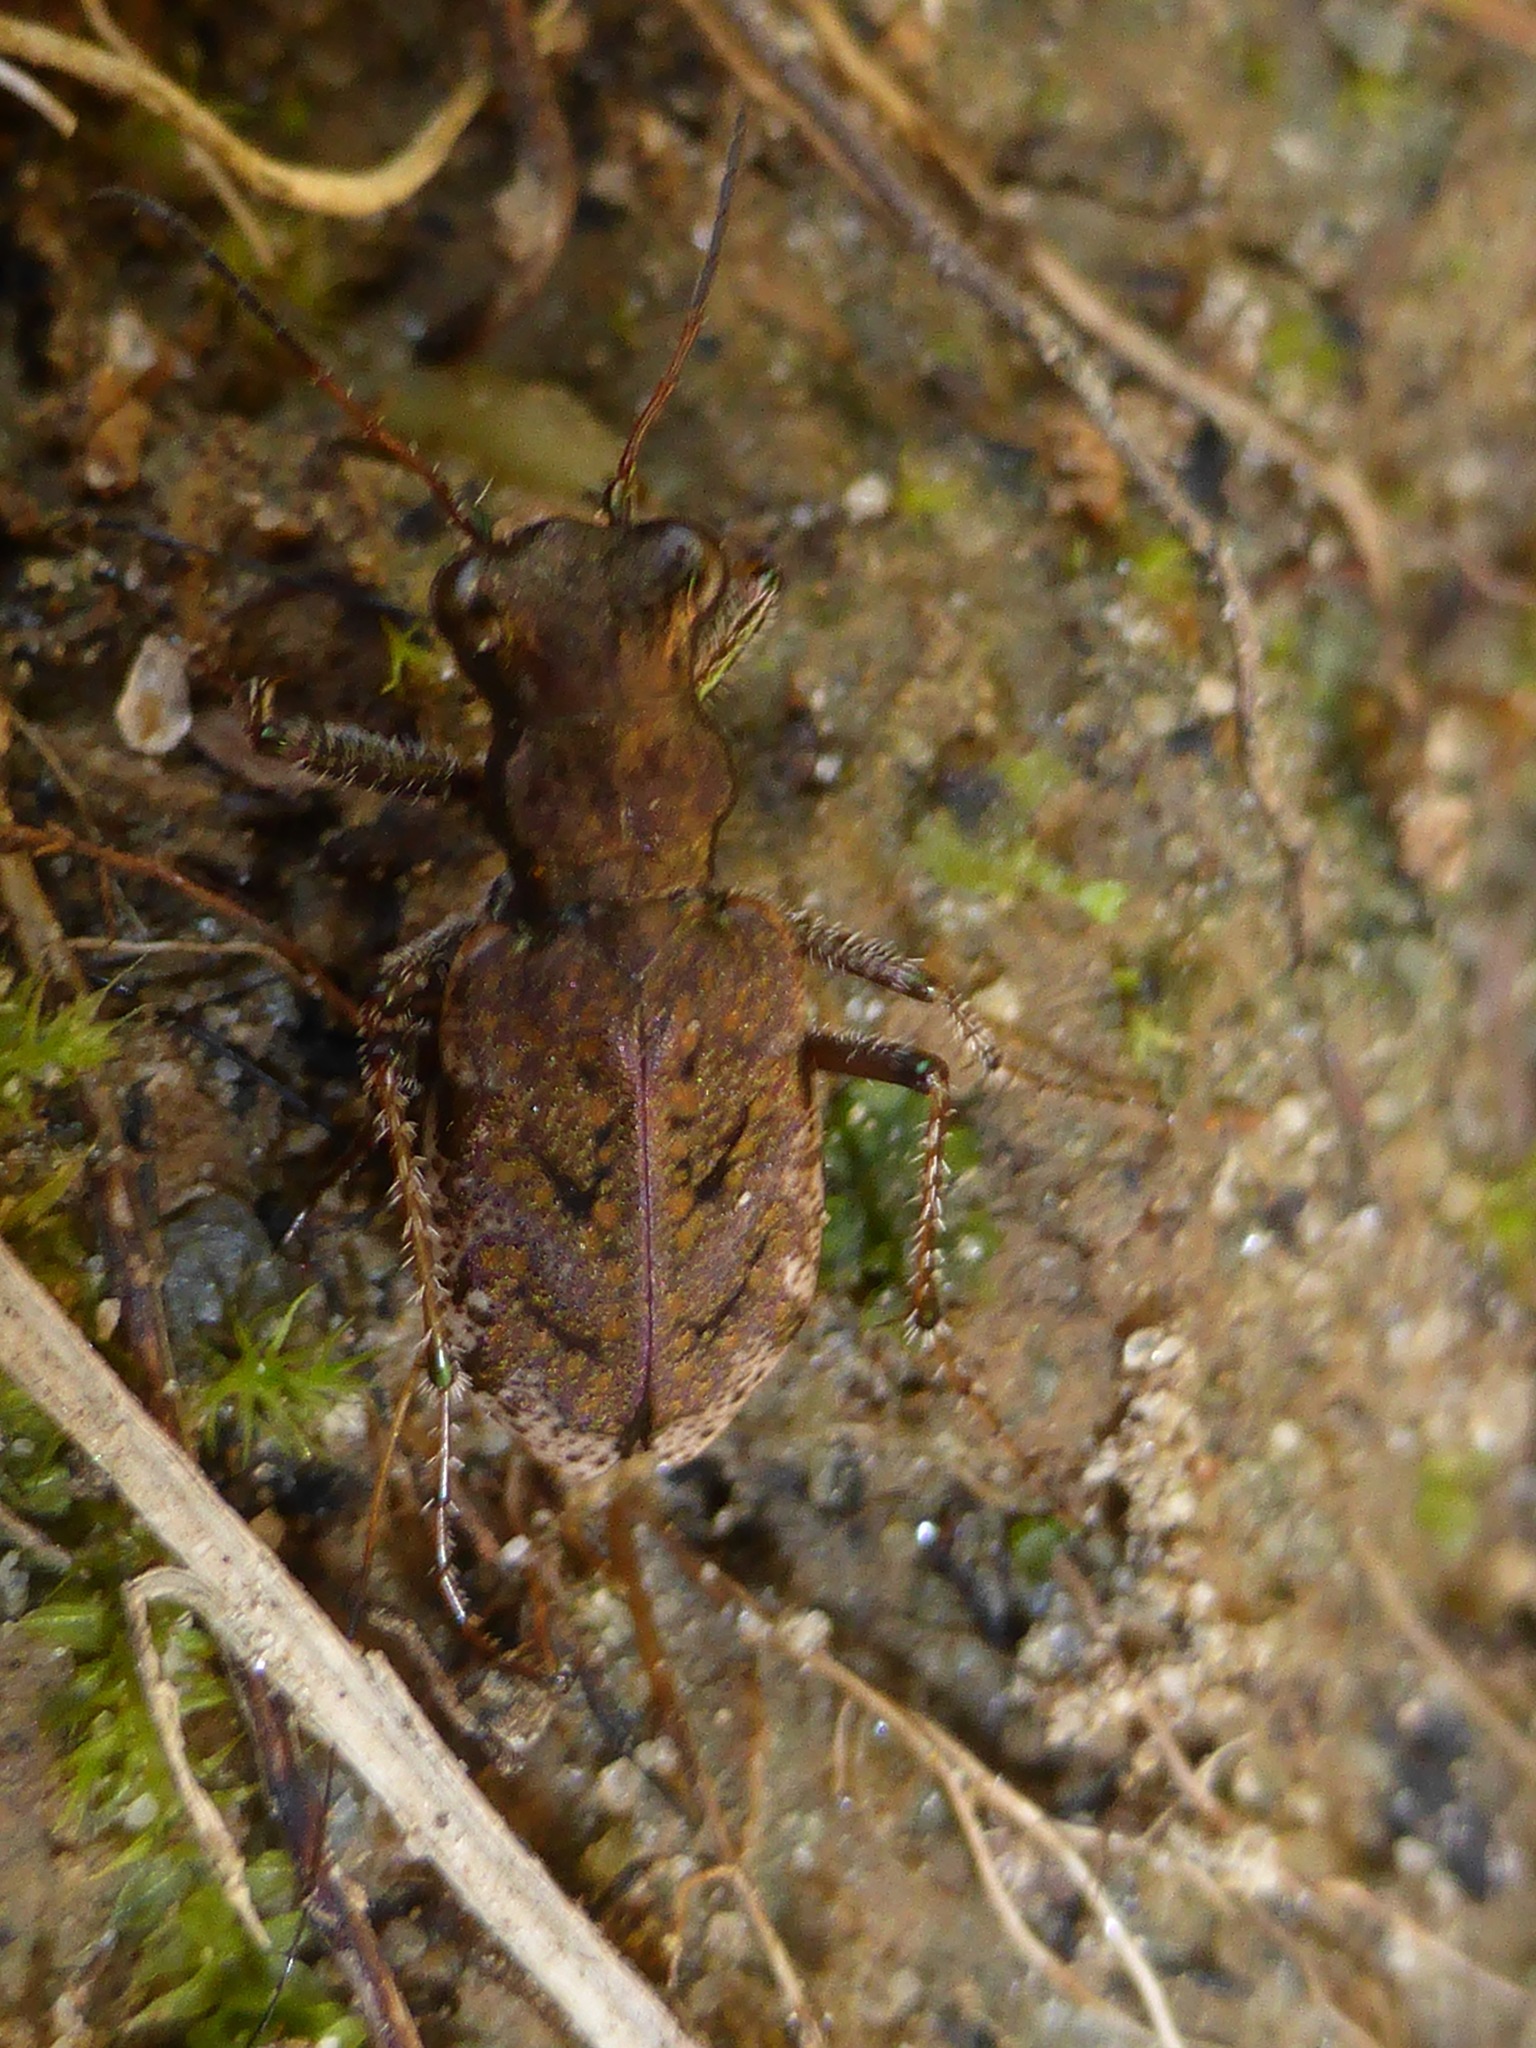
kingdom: Animalia
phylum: Arthropoda
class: Insecta
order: Coleoptera
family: Carabidae
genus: Neocicindela
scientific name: Neocicindela parryi
